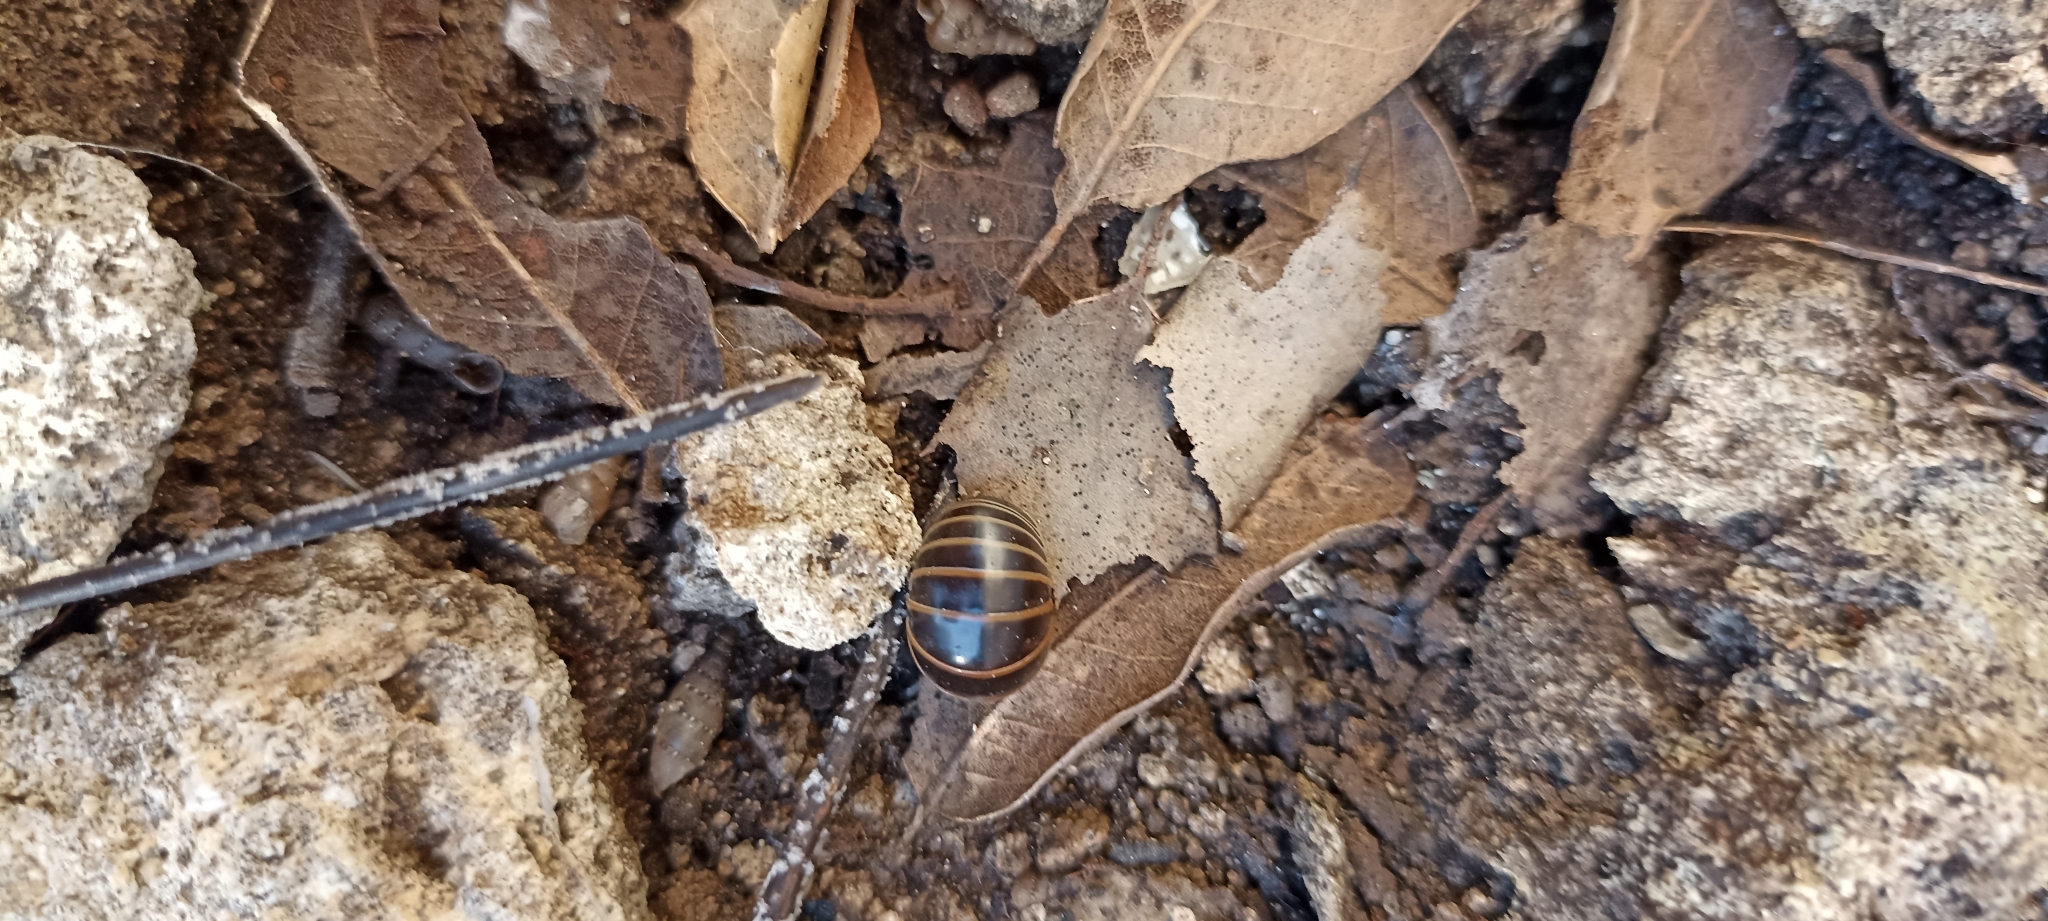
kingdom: Animalia
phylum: Arthropoda
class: Diplopoda
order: Glomerida
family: Glomeridae
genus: Glomeris
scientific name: Glomeris marginata
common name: Bordered pill millipede
